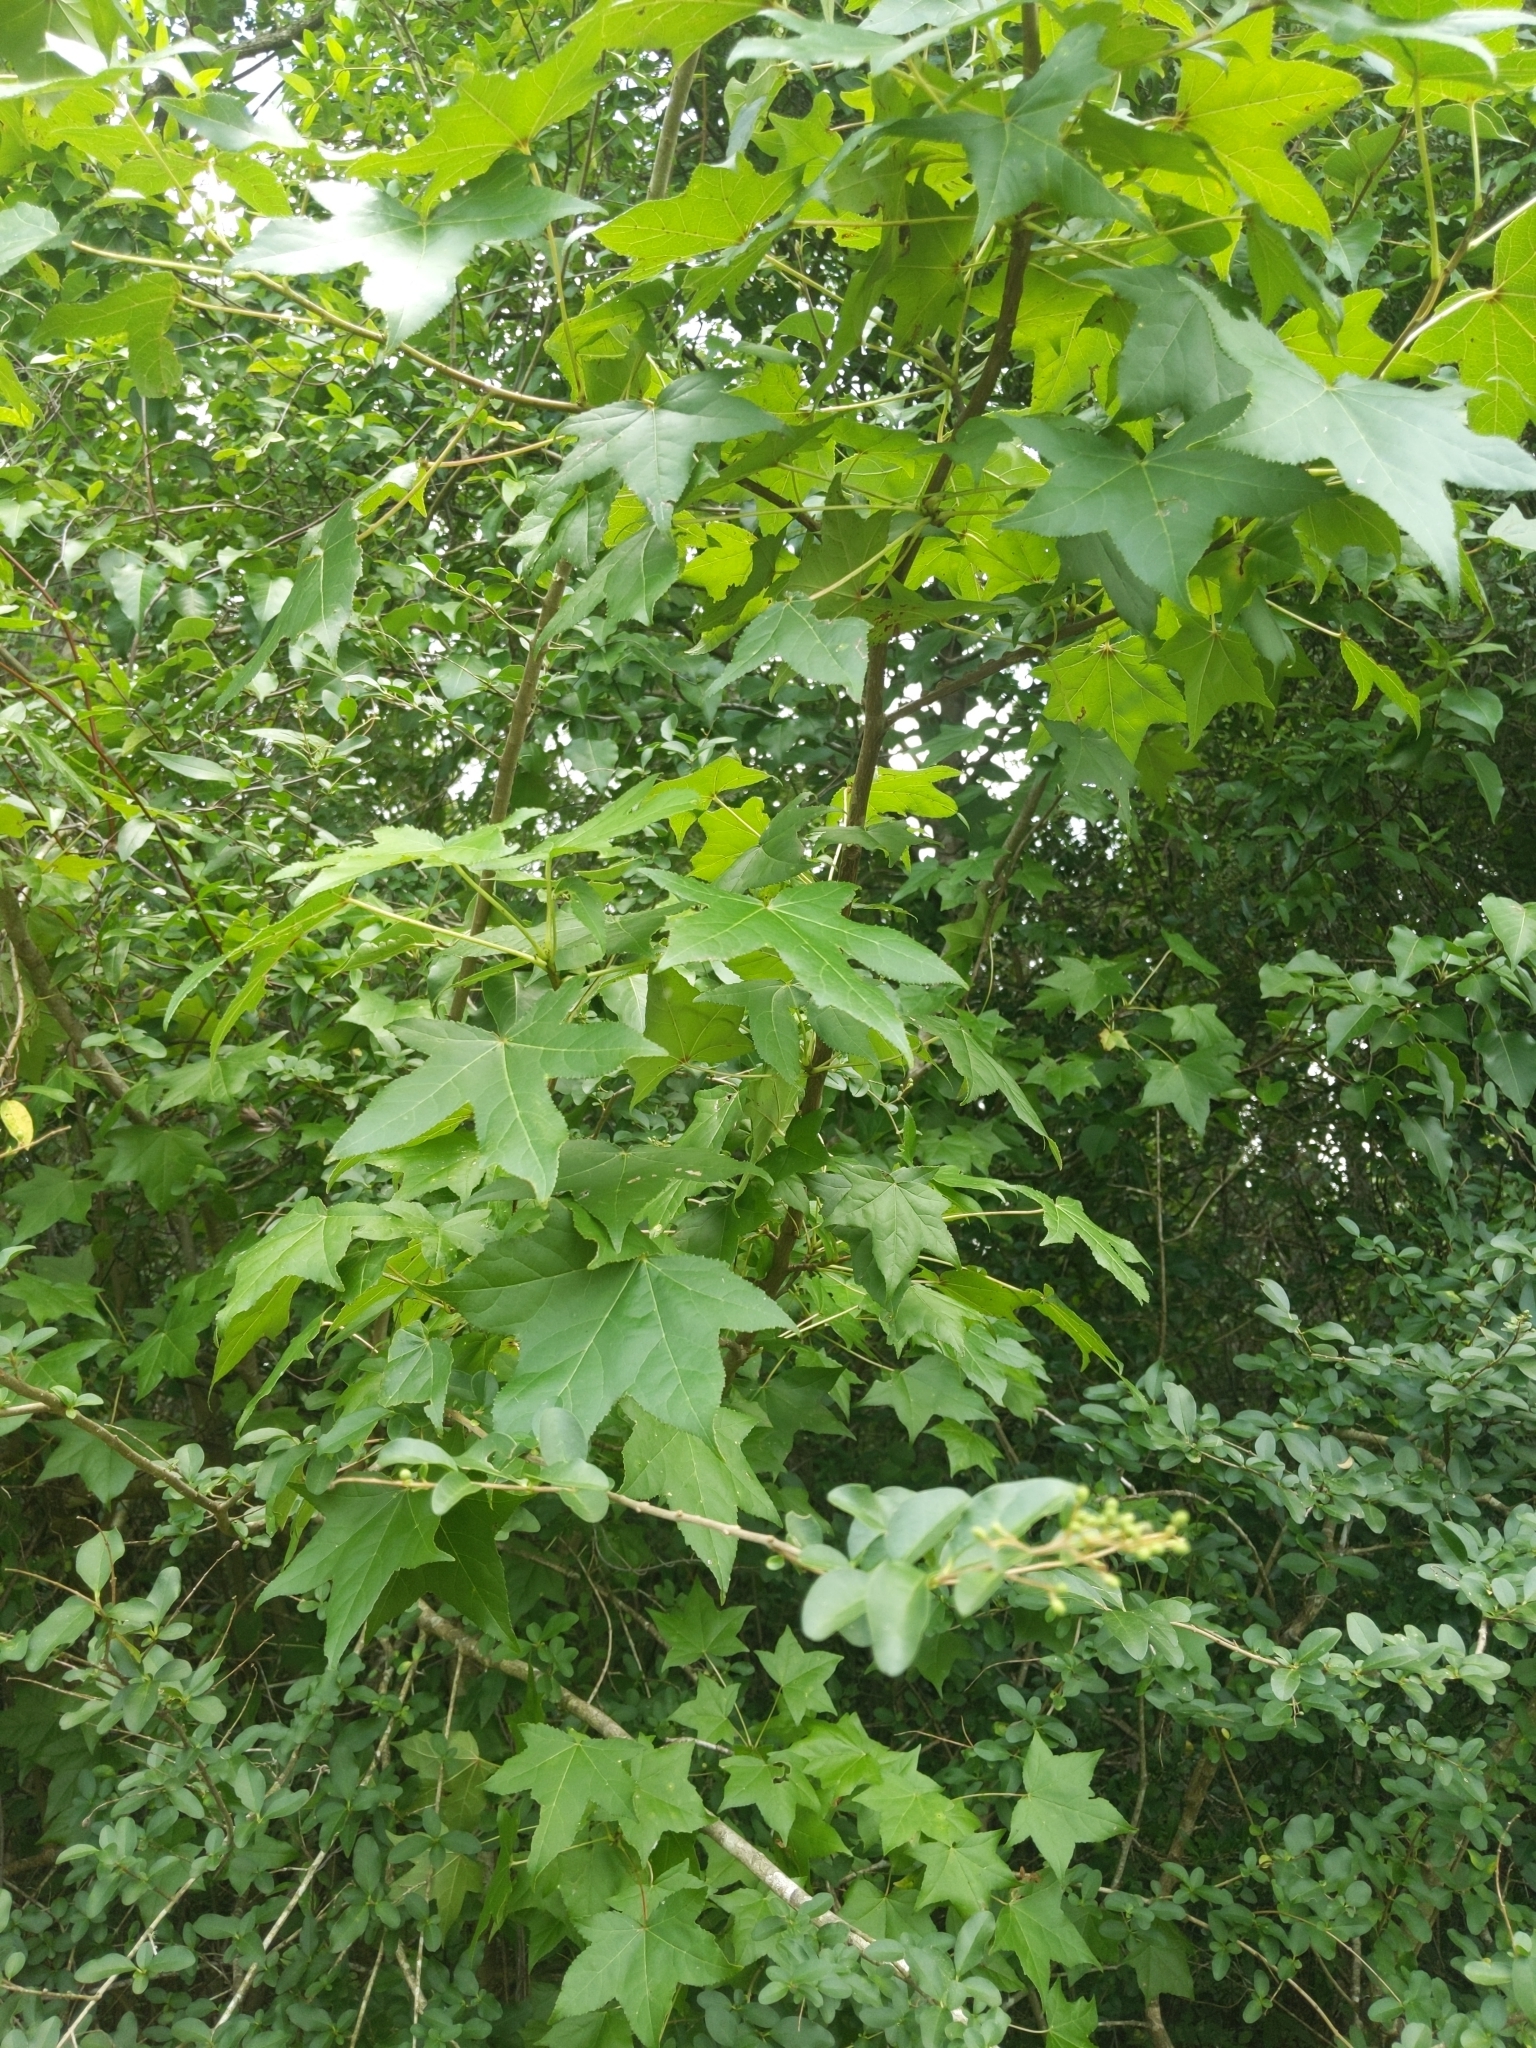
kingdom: Plantae
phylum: Tracheophyta
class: Magnoliopsida
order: Saxifragales
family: Altingiaceae
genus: Liquidambar
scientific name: Liquidambar styraciflua
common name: Sweet gum
